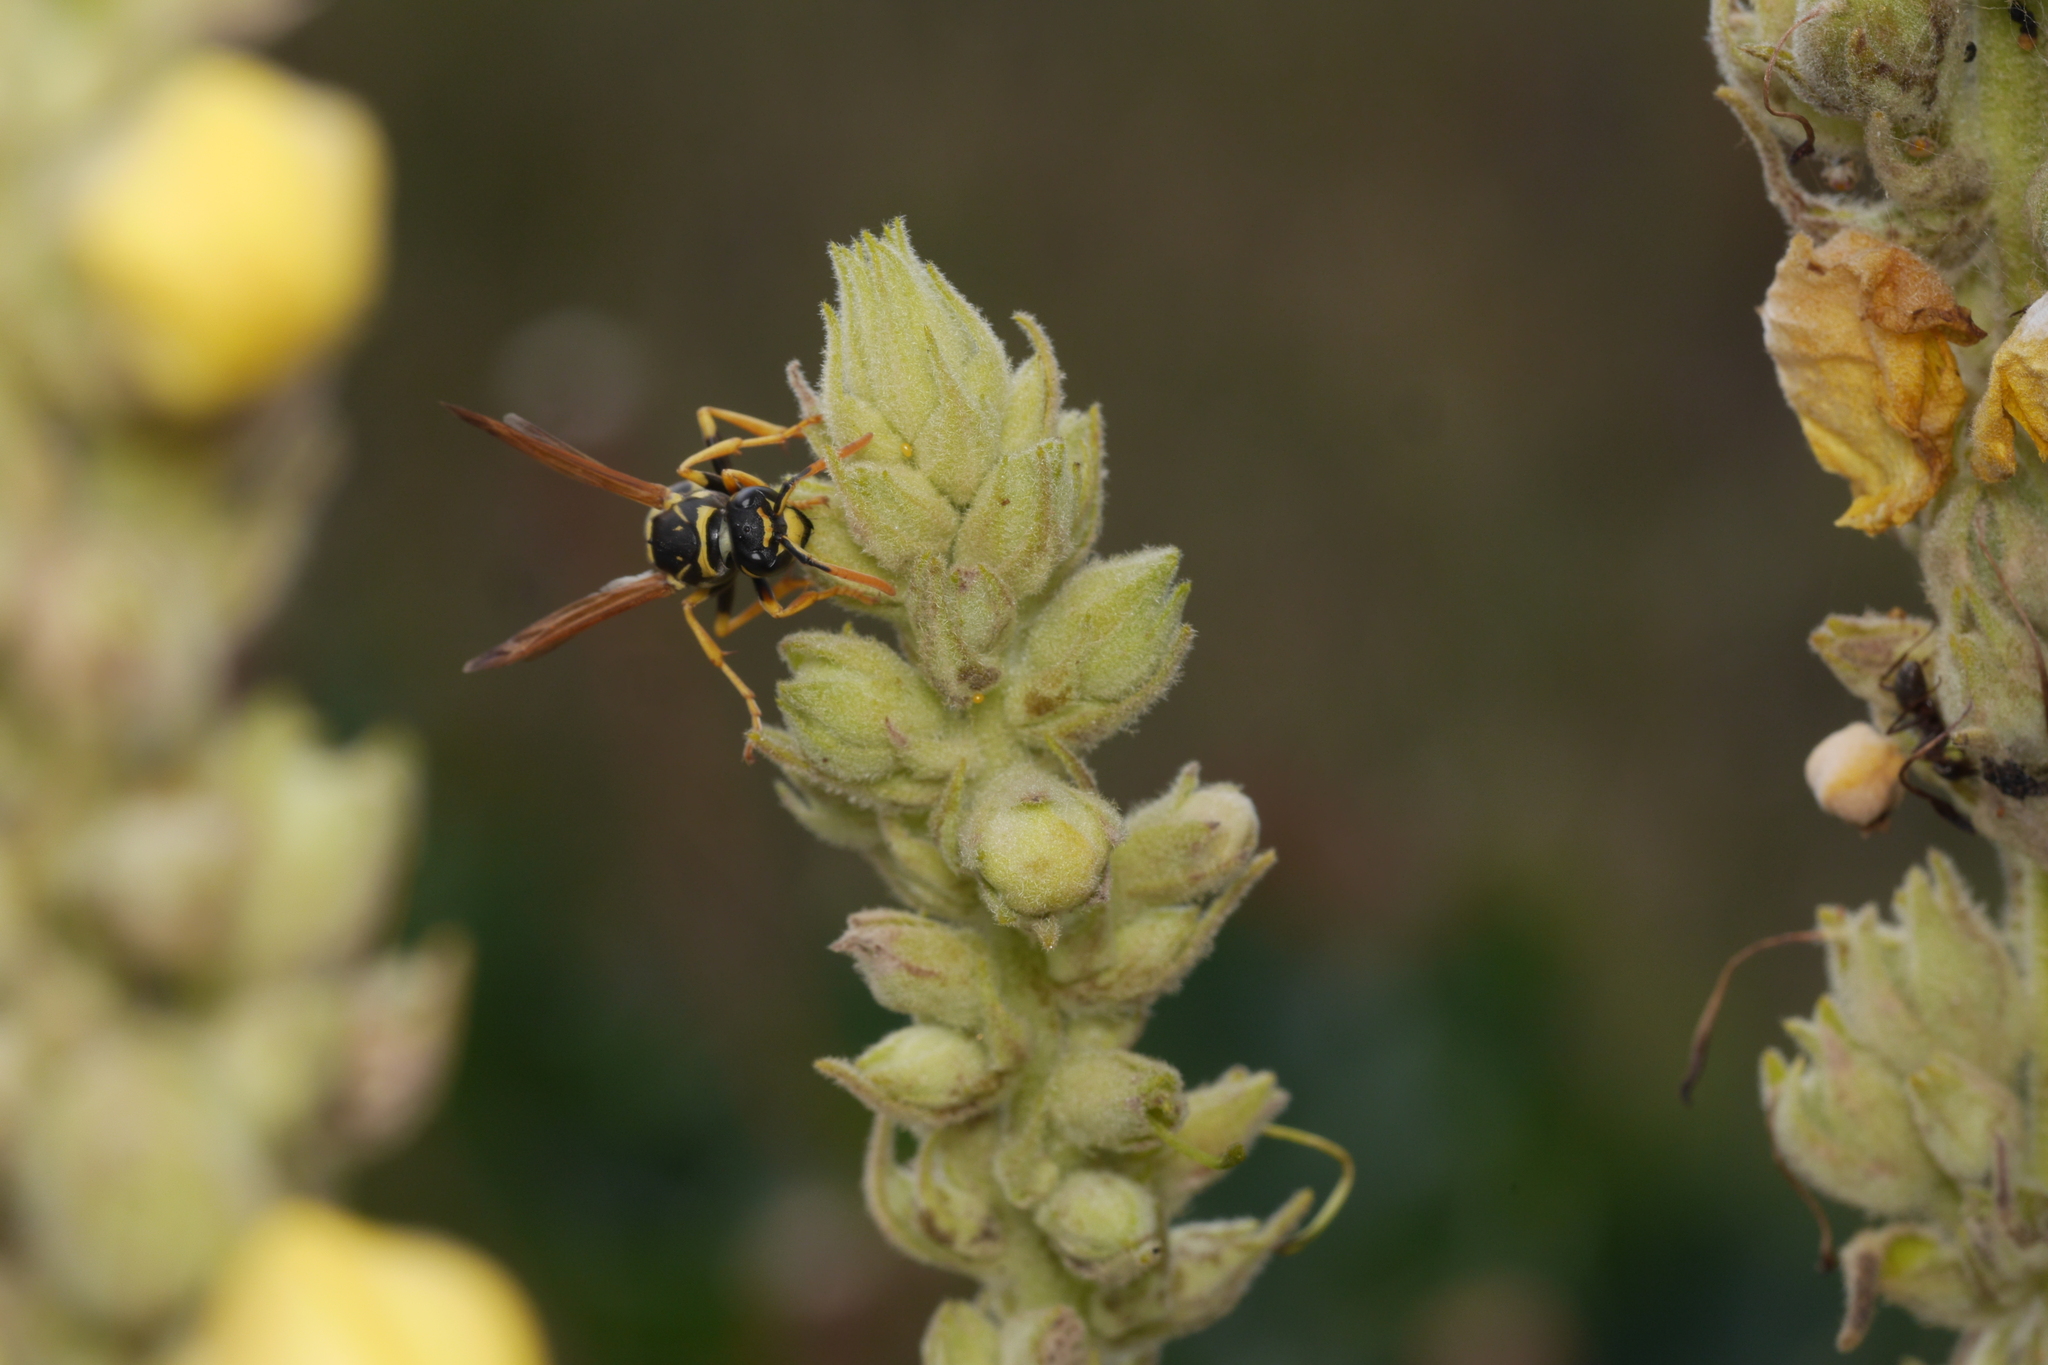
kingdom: Animalia
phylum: Arthropoda
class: Insecta
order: Hymenoptera
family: Eumenidae
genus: Polistes
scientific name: Polistes dominula
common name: Paper wasp
